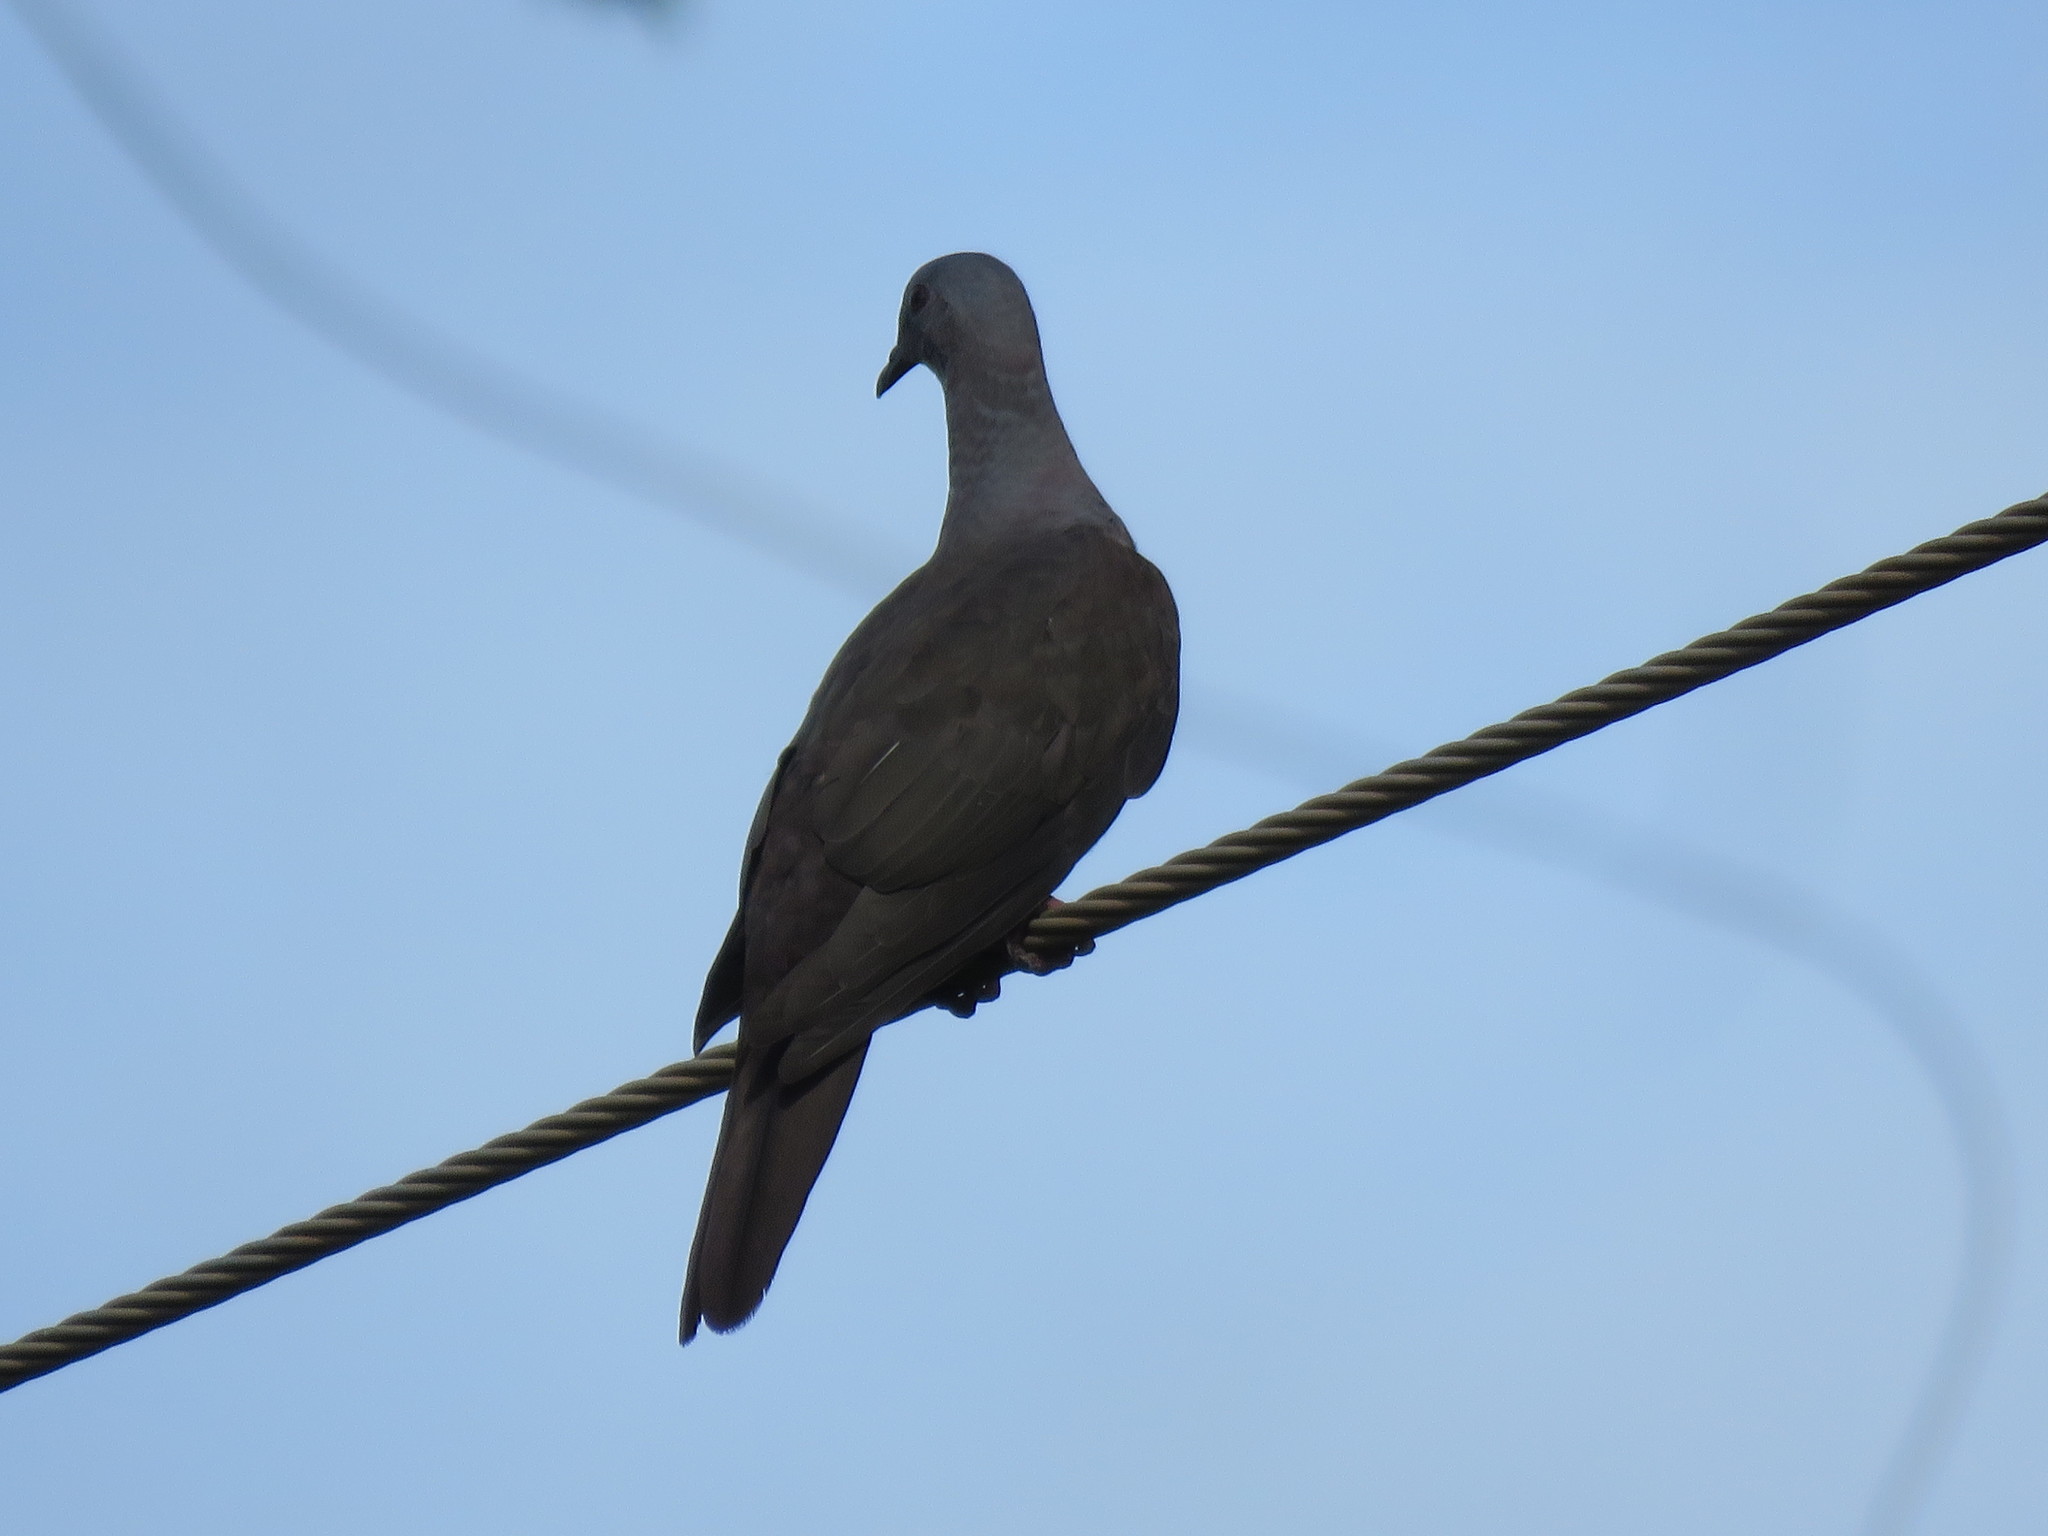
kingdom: Animalia
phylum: Chordata
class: Aves
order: Columbiformes
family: Columbidae
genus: Patagioenas
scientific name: Patagioenas plumbea
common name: Plumbeous pigeon
